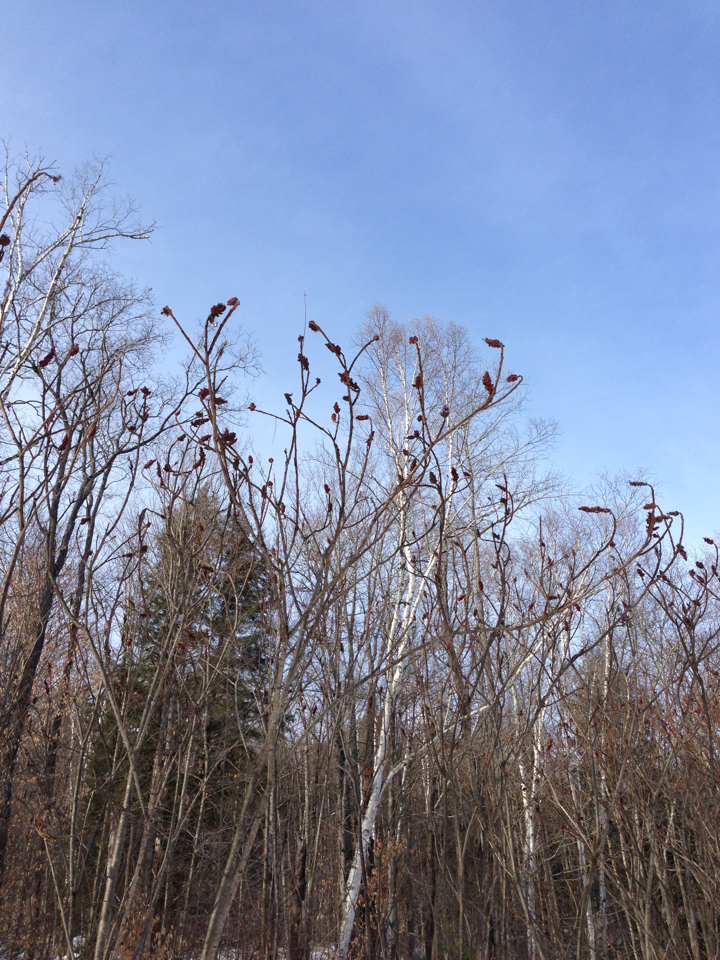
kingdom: Plantae
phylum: Tracheophyta
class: Magnoliopsida
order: Sapindales
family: Anacardiaceae
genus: Rhus
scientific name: Rhus typhina
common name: Staghorn sumac
